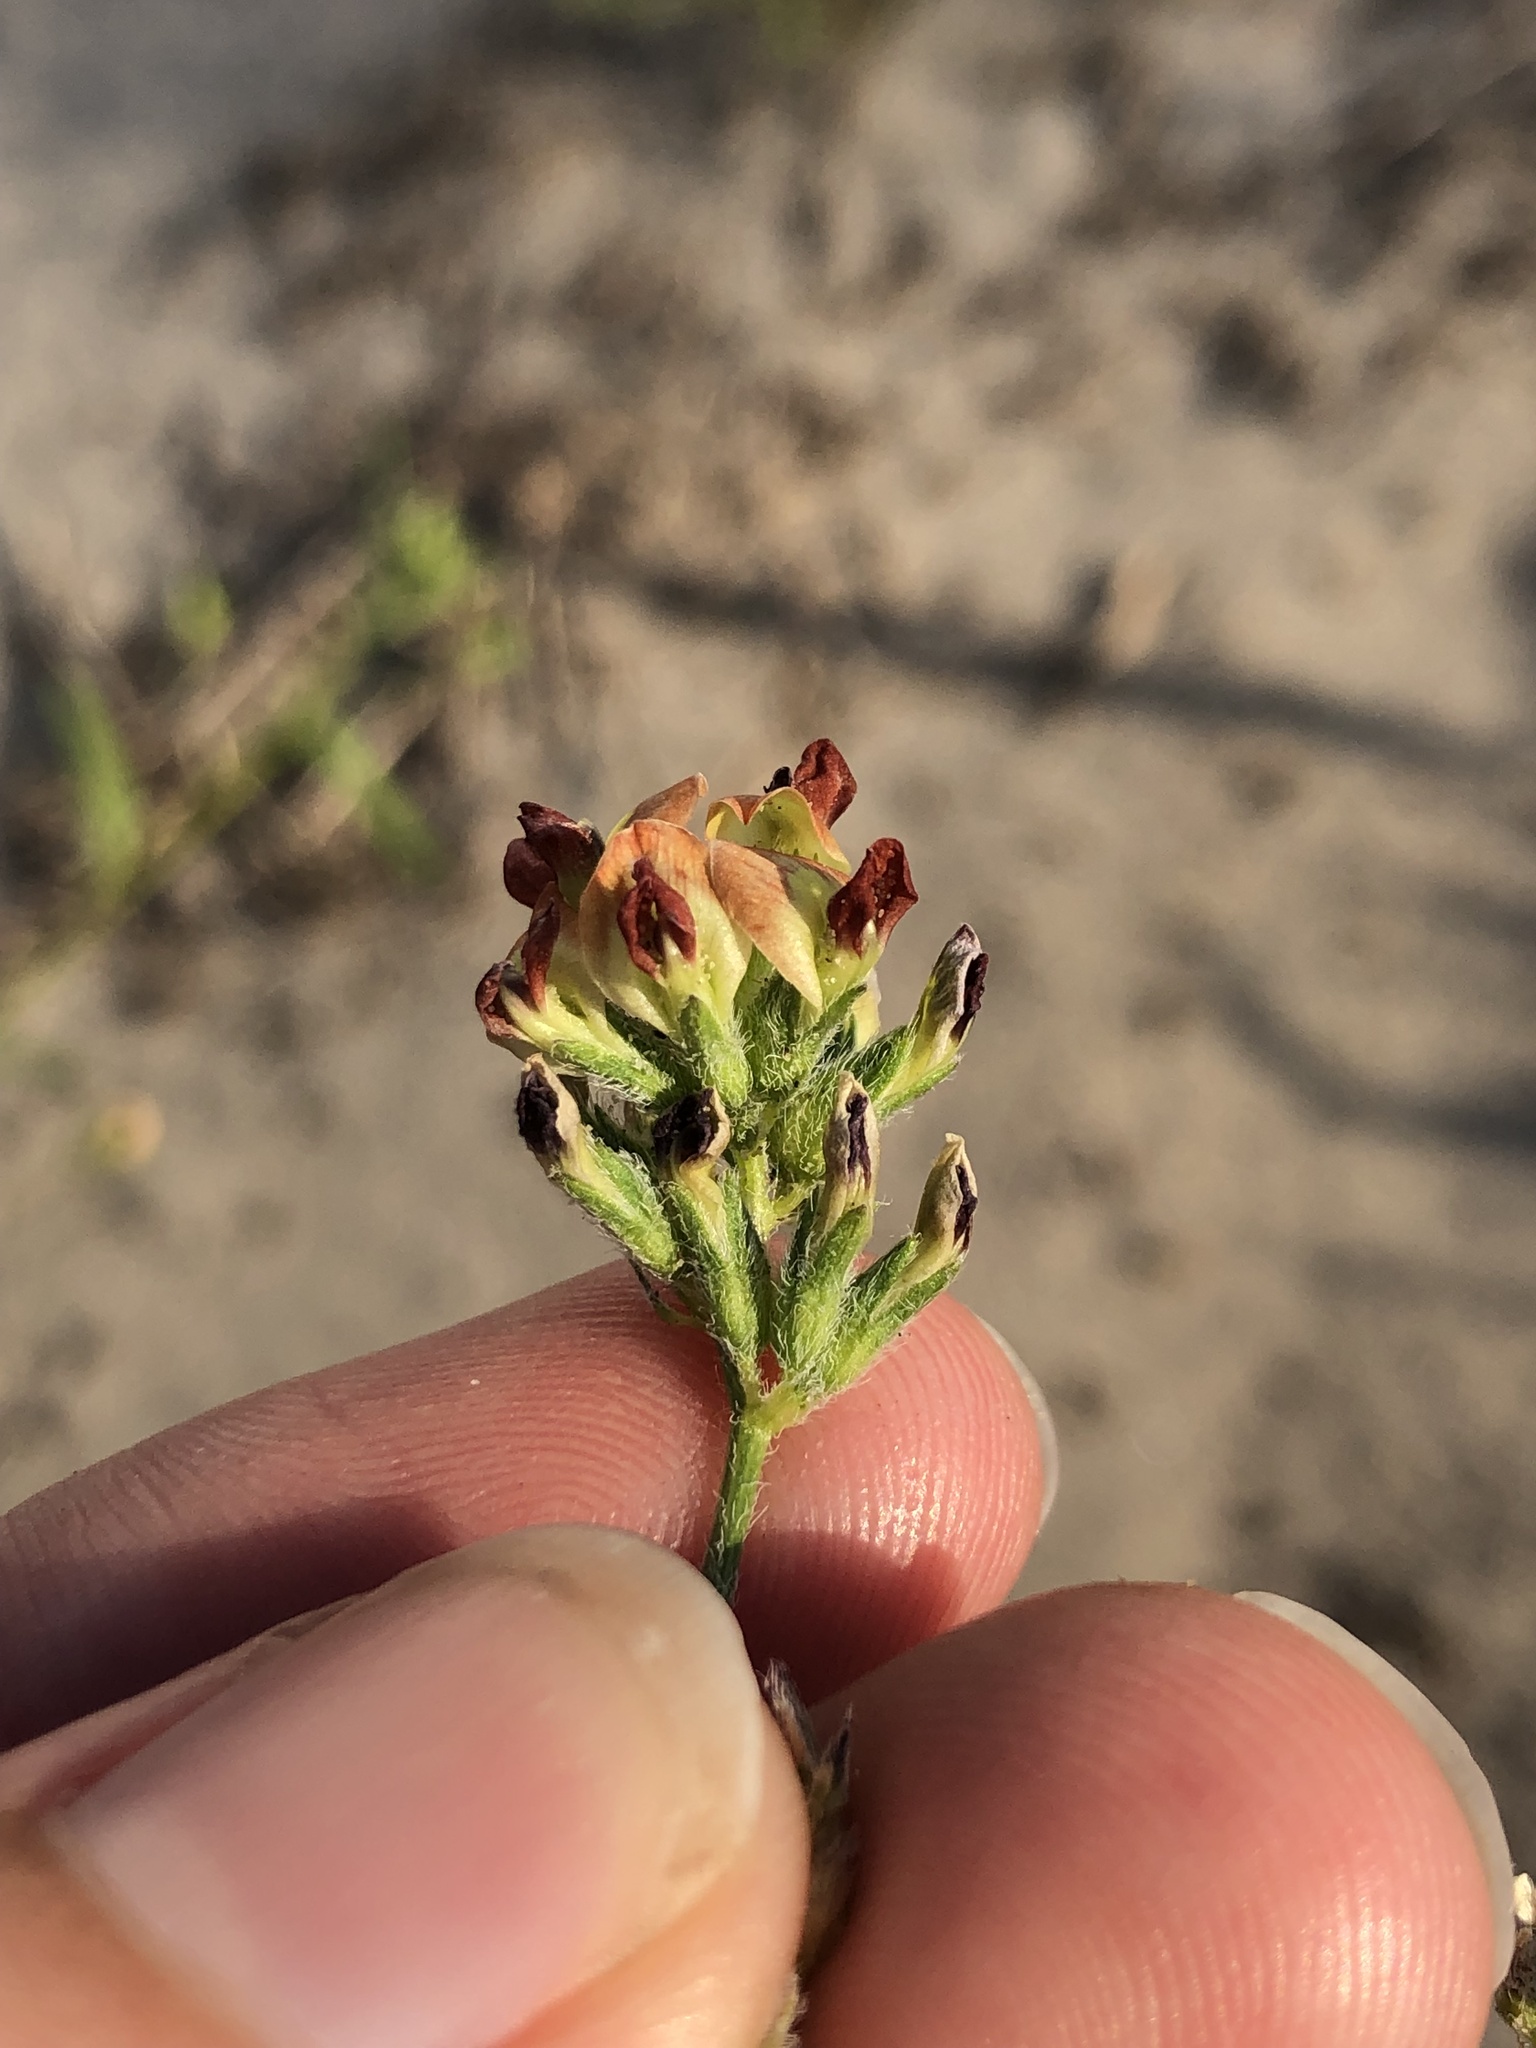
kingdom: Plantae
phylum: Tracheophyta
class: Magnoliopsida
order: Fabales
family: Fabaceae
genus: Pediomelum
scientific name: Pediomelum rhombifolium
